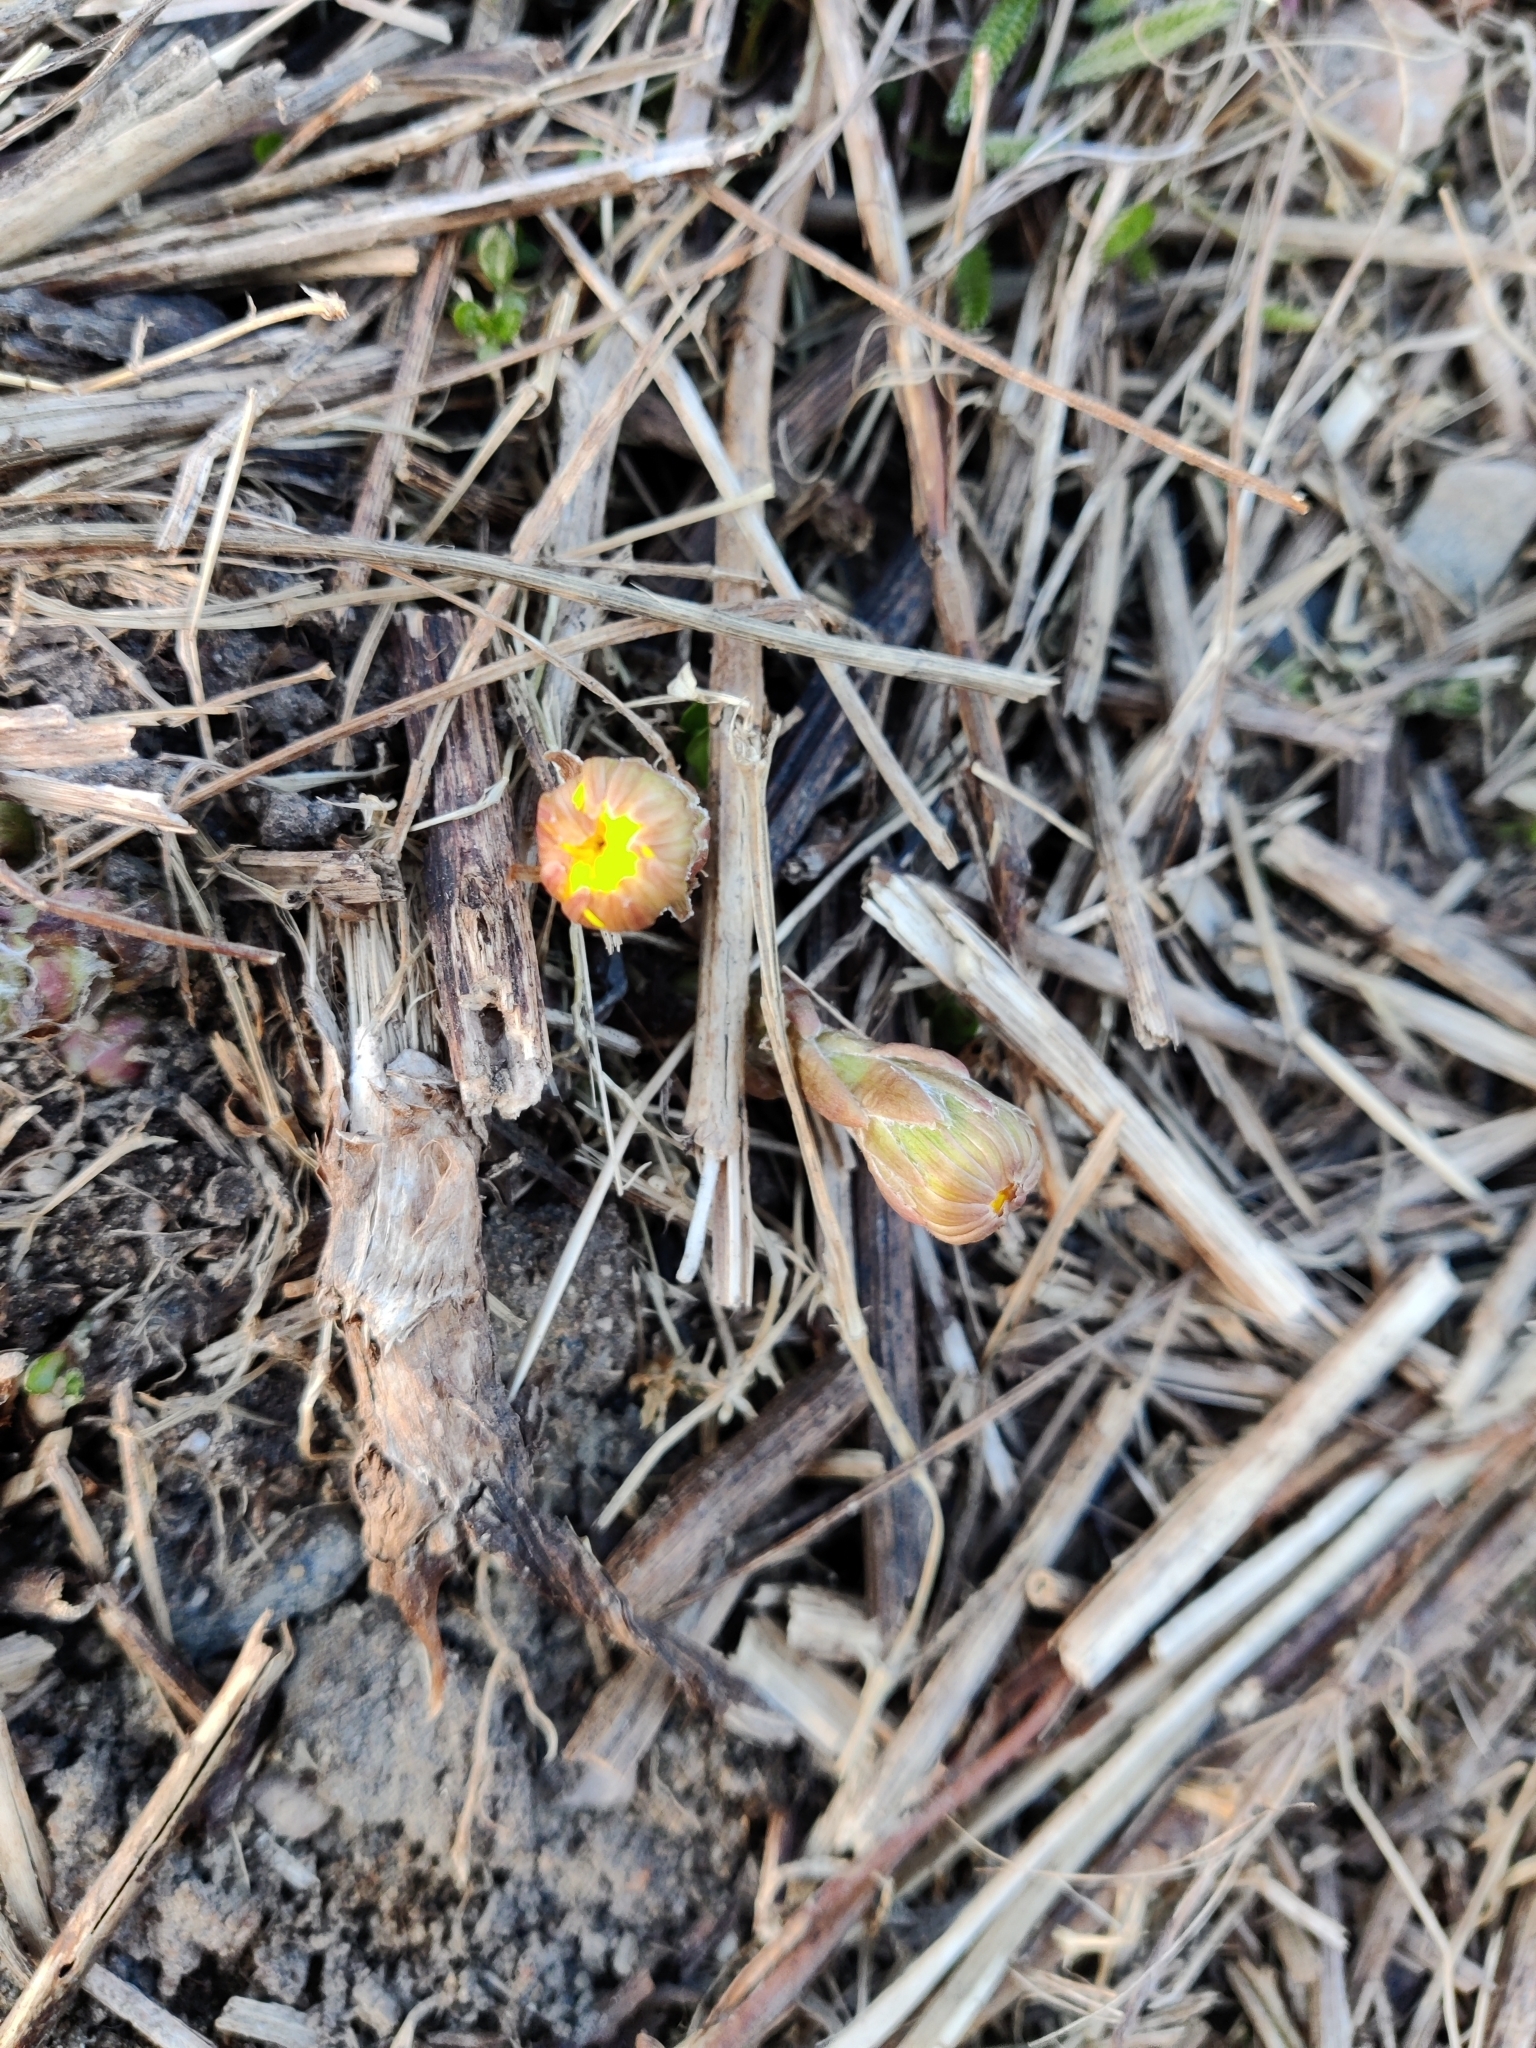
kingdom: Plantae
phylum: Tracheophyta
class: Magnoliopsida
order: Asterales
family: Asteraceae
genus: Tussilago
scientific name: Tussilago farfara
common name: Coltsfoot
